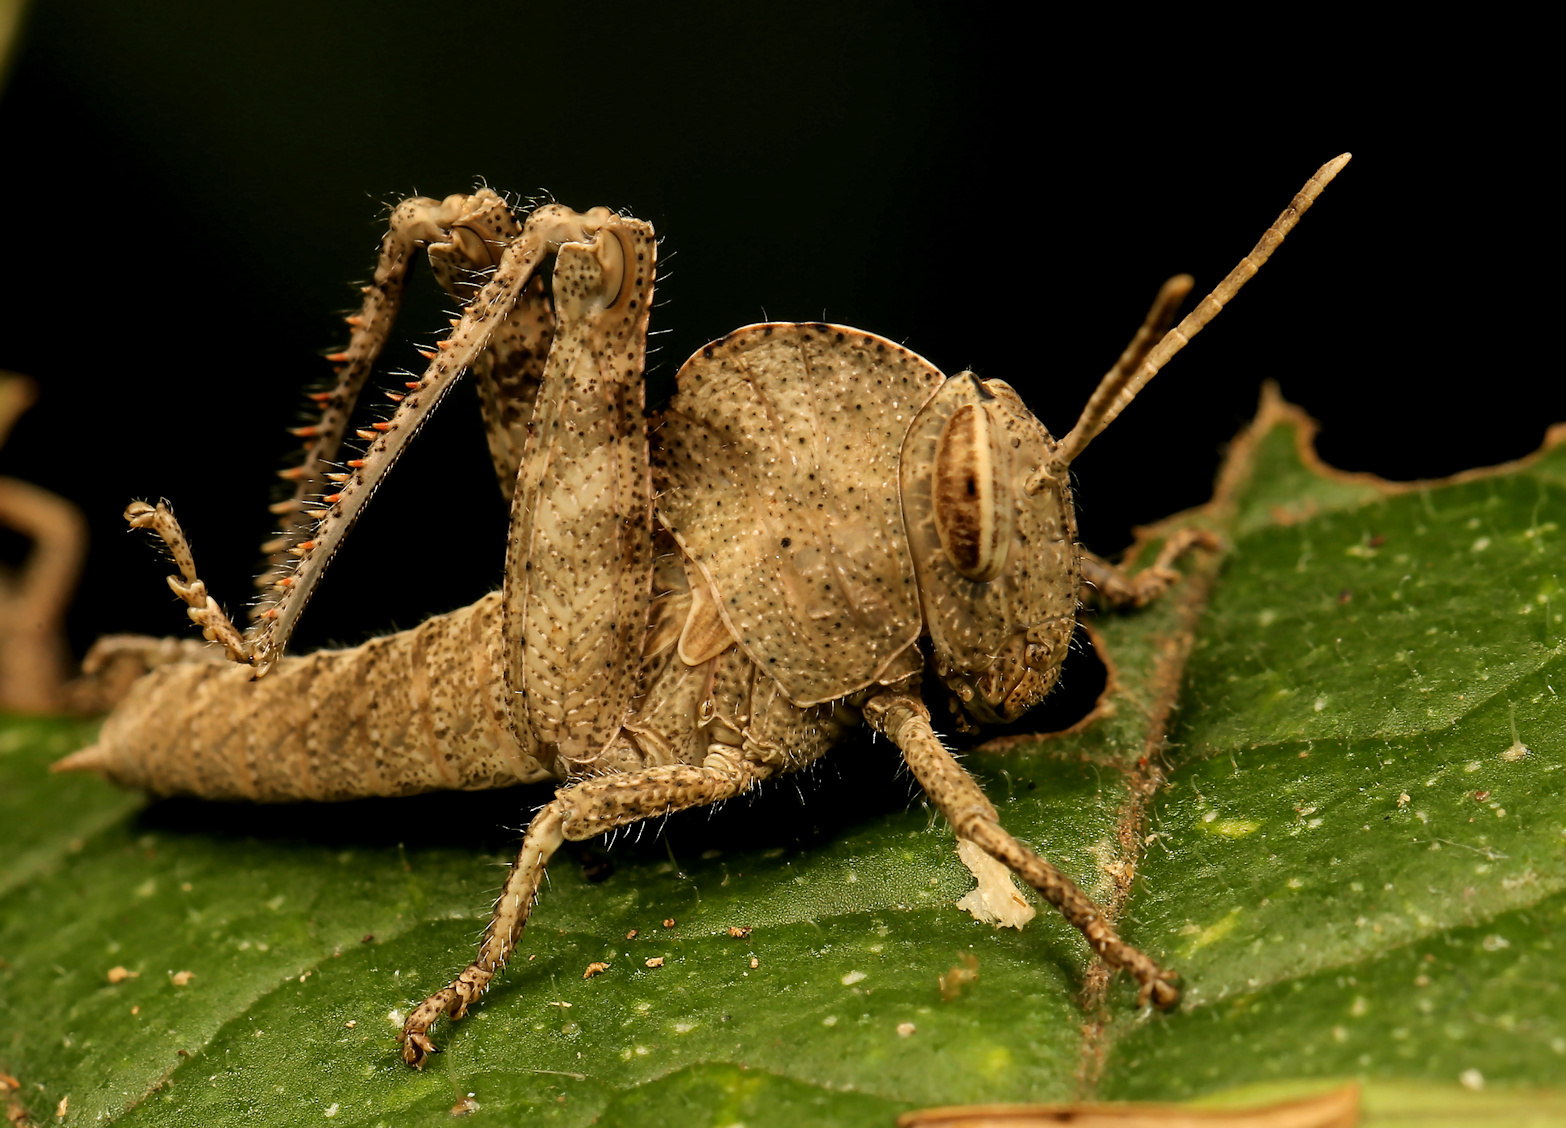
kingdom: Animalia
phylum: Arthropoda
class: Insecta
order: Orthoptera
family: Acrididae
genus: Abisares
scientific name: Abisares viridipenne
